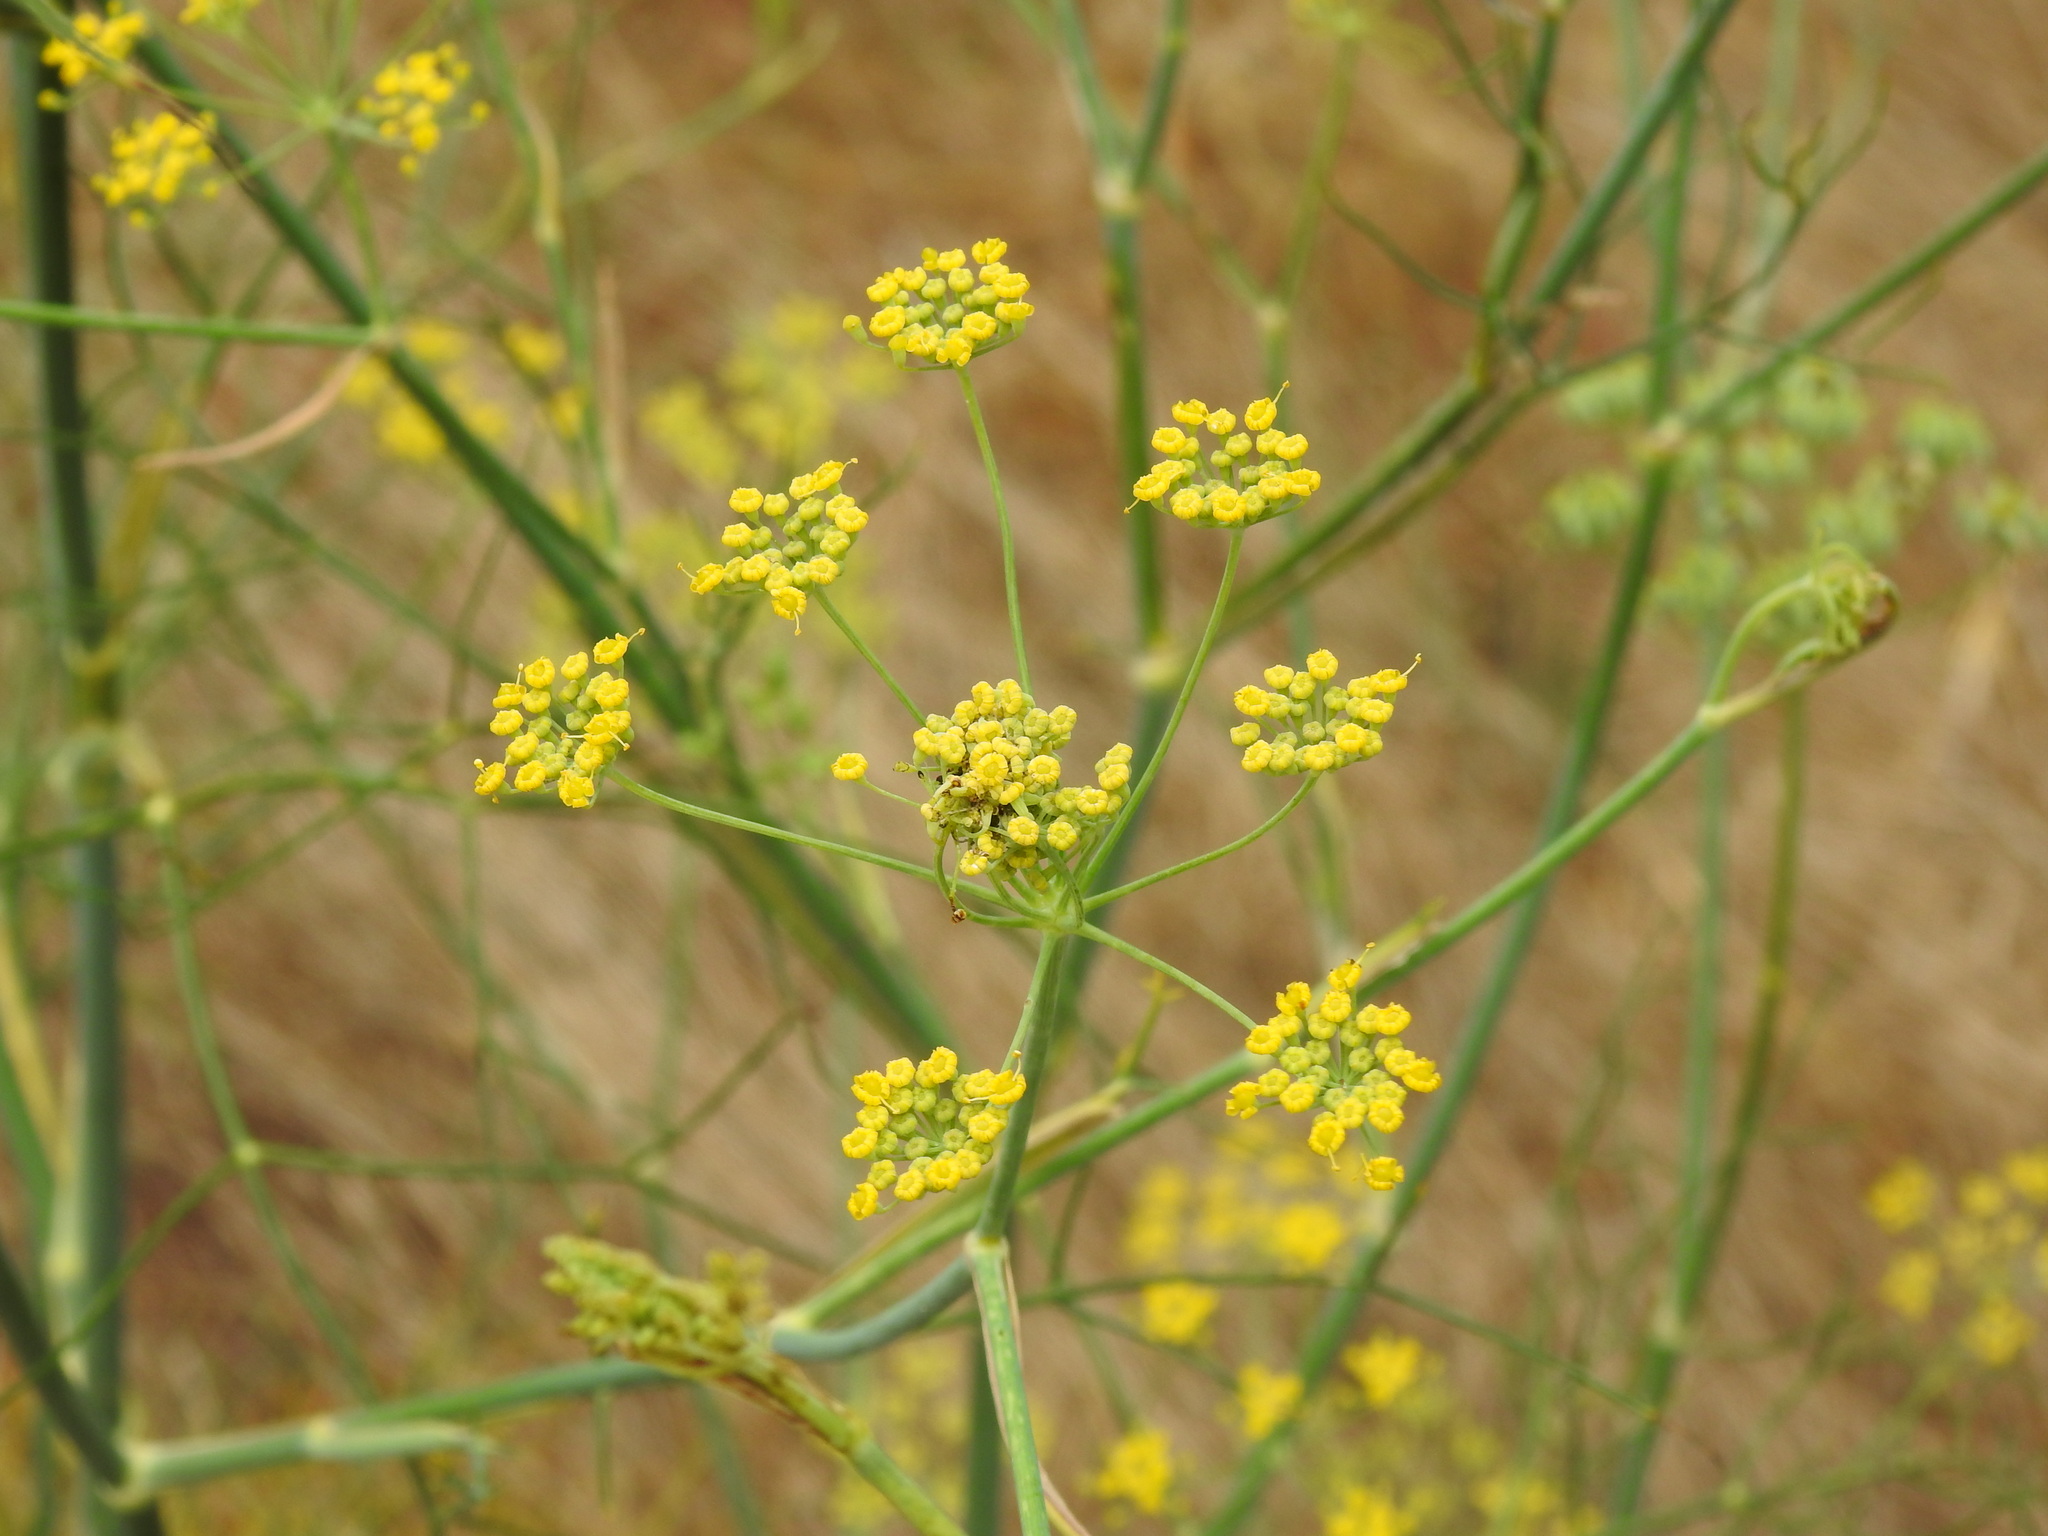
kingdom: Plantae
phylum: Tracheophyta
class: Magnoliopsida
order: Apiales
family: Apiaceae
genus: Foeniculum
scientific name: Foeniculum vulgare
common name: Fennel
